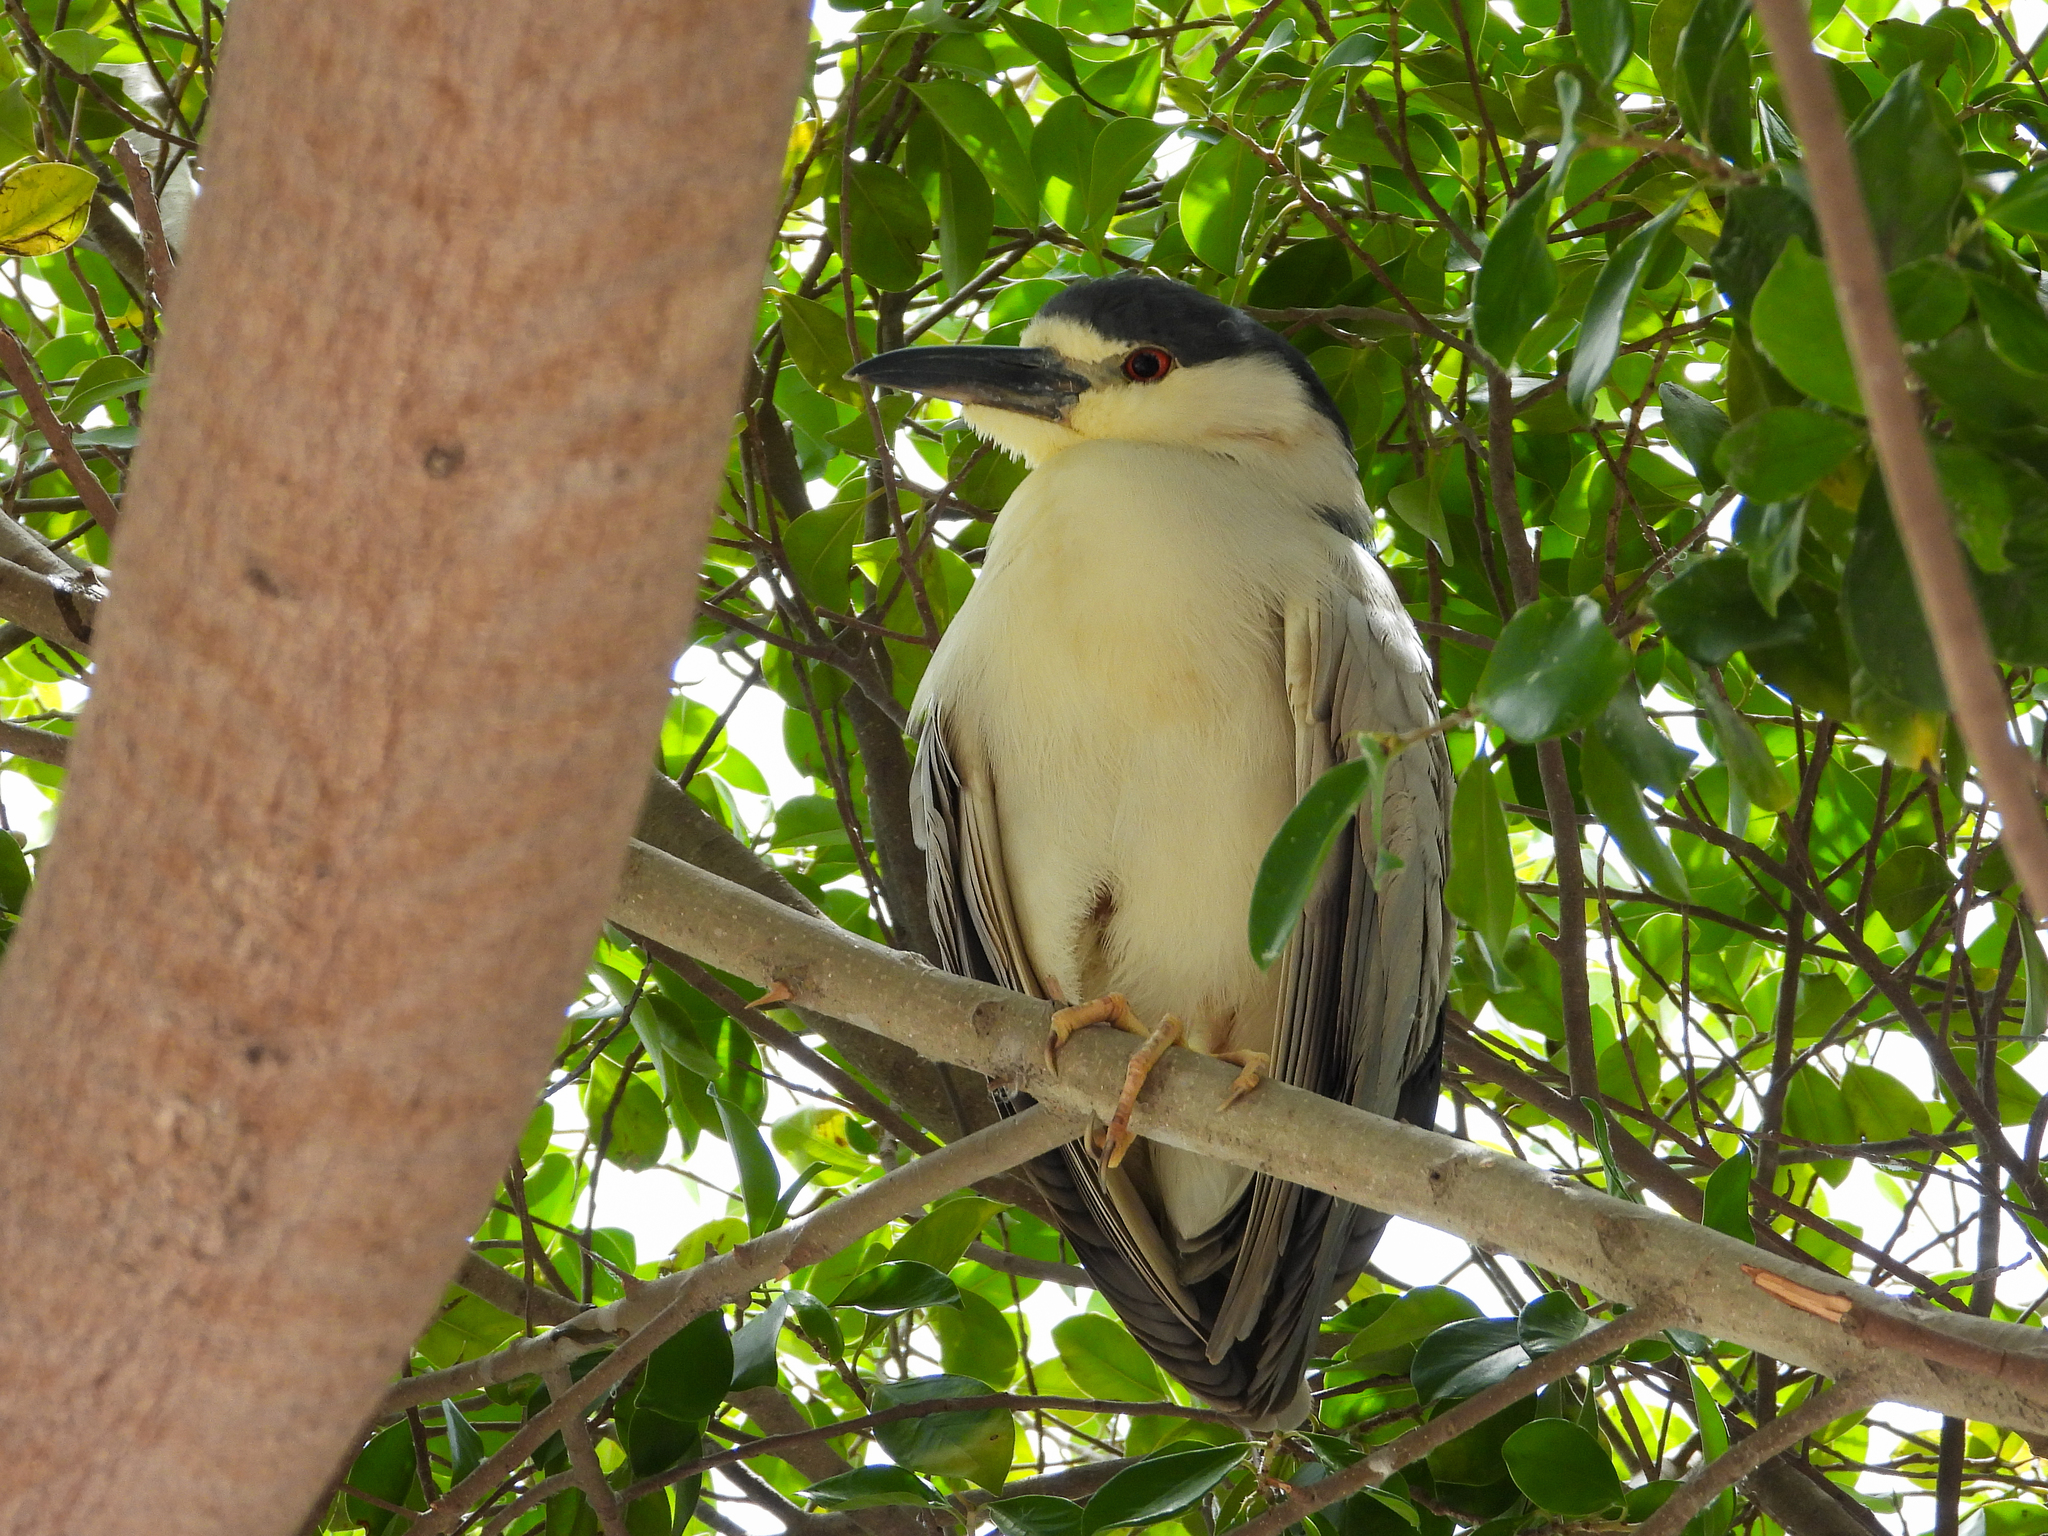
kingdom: Animalia
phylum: Chordata
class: Aves
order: Pelecaniformes
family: Ardeidae
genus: Nycticorax
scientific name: Nycticorax nycticorax
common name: Black-crowned night heron
